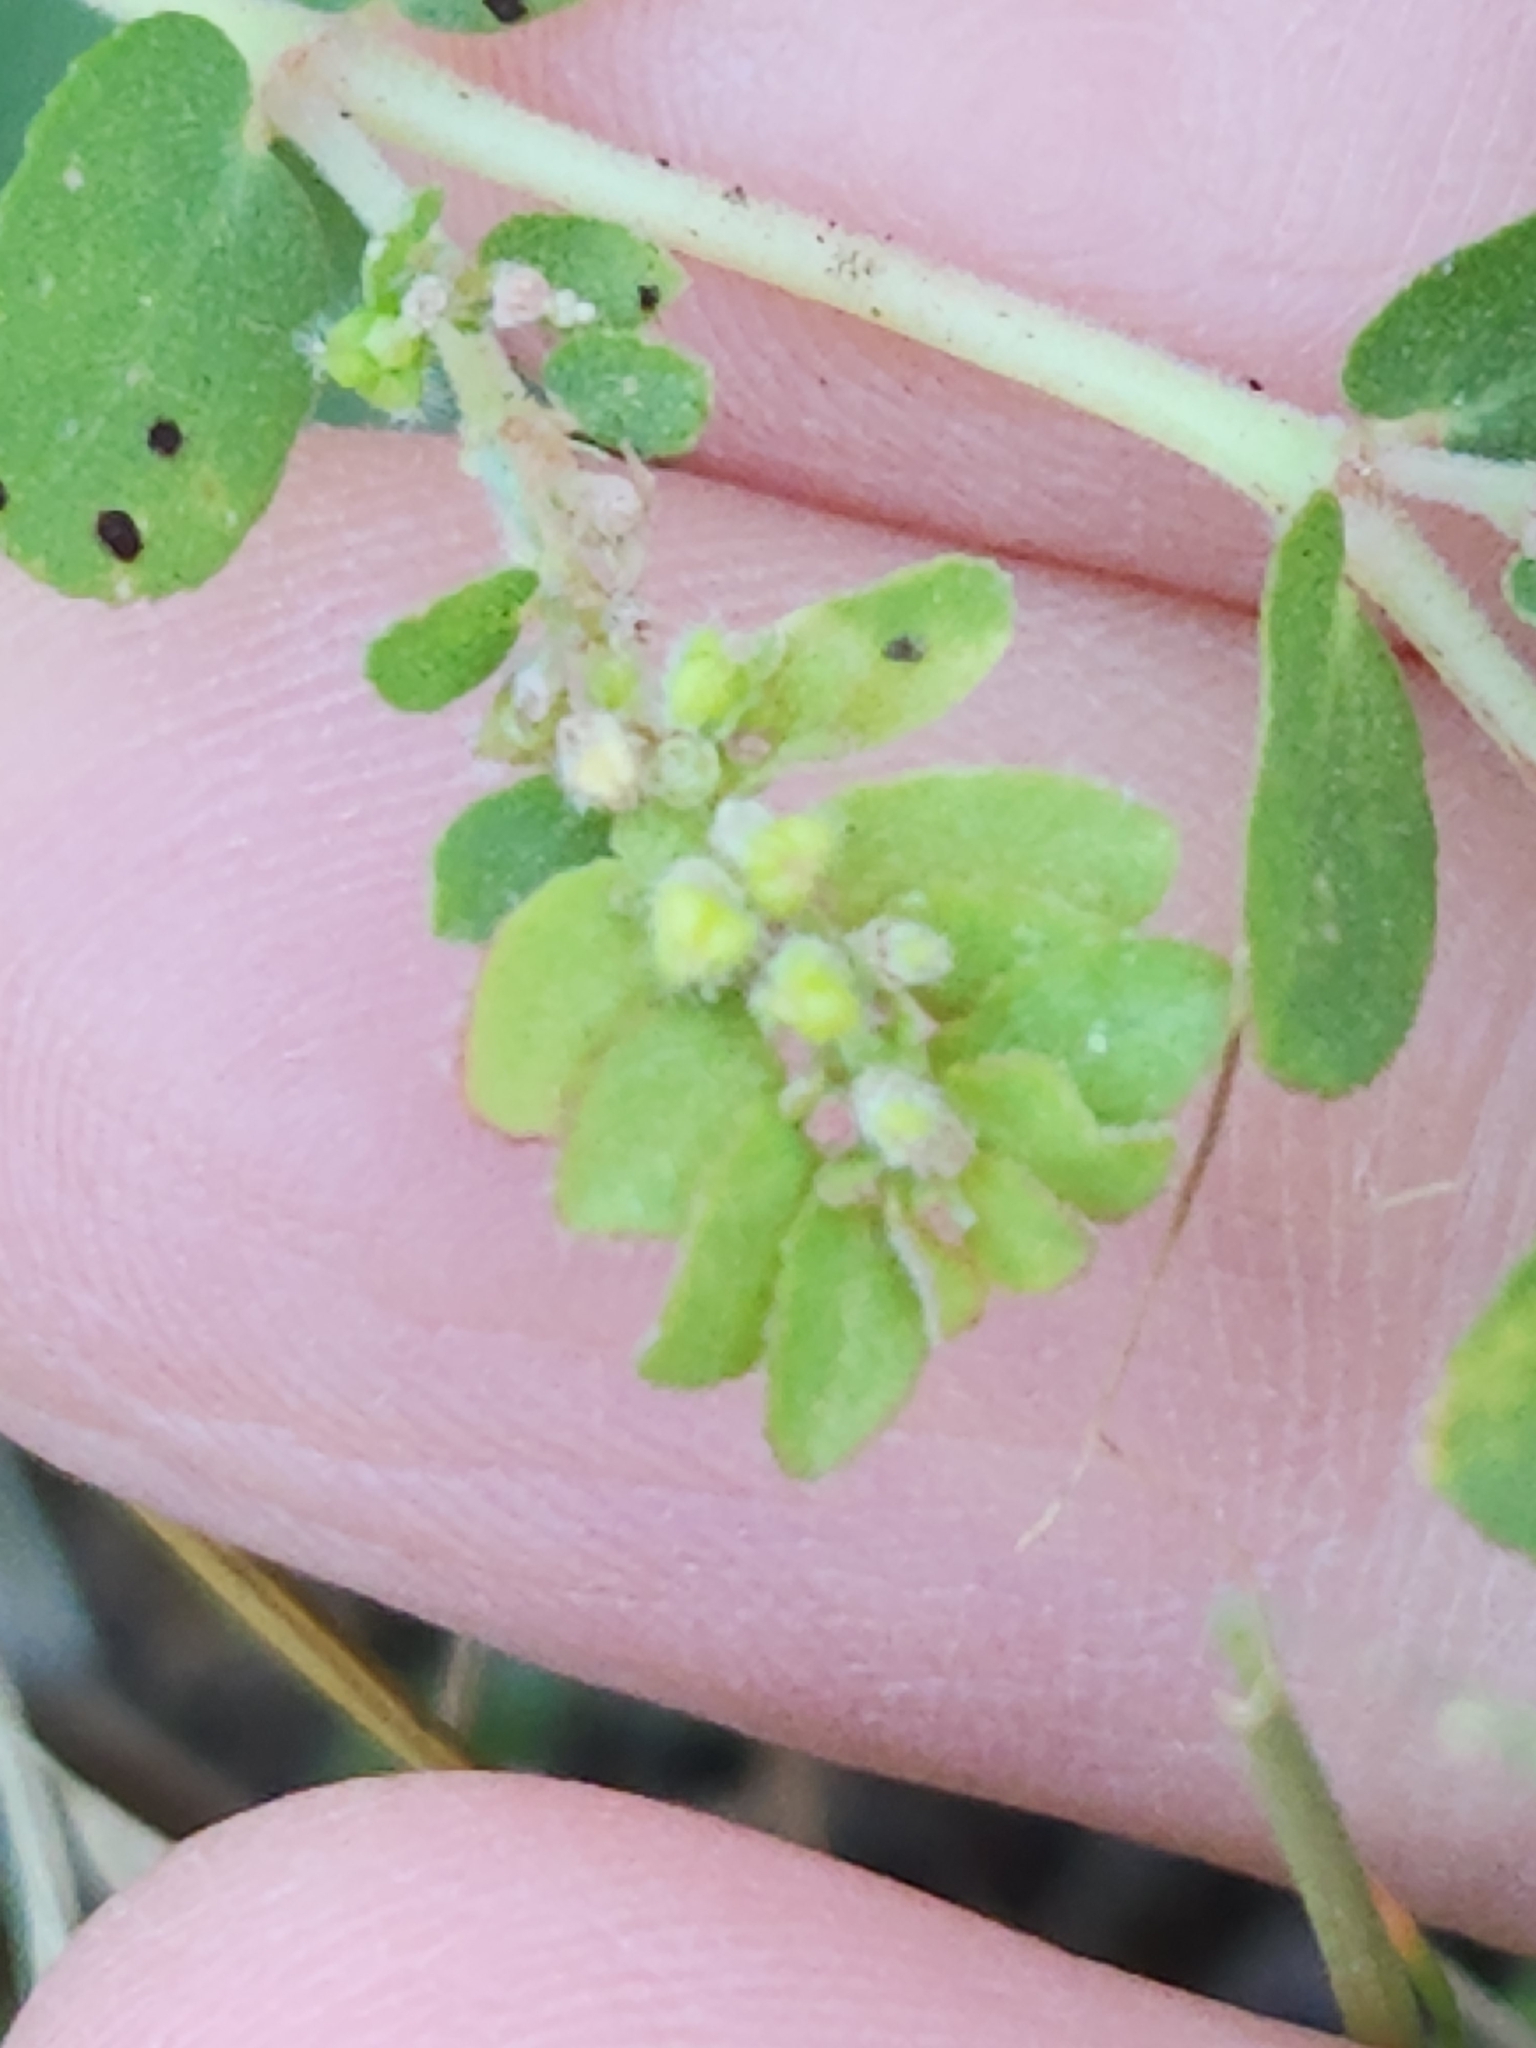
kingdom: Plantae
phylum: Tracheophyta
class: Magnoliopsida
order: Malpighiales
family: Euphorbiaceae
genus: Euphorbia
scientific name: Euphorbia prostrata
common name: Prostrate sandmat
